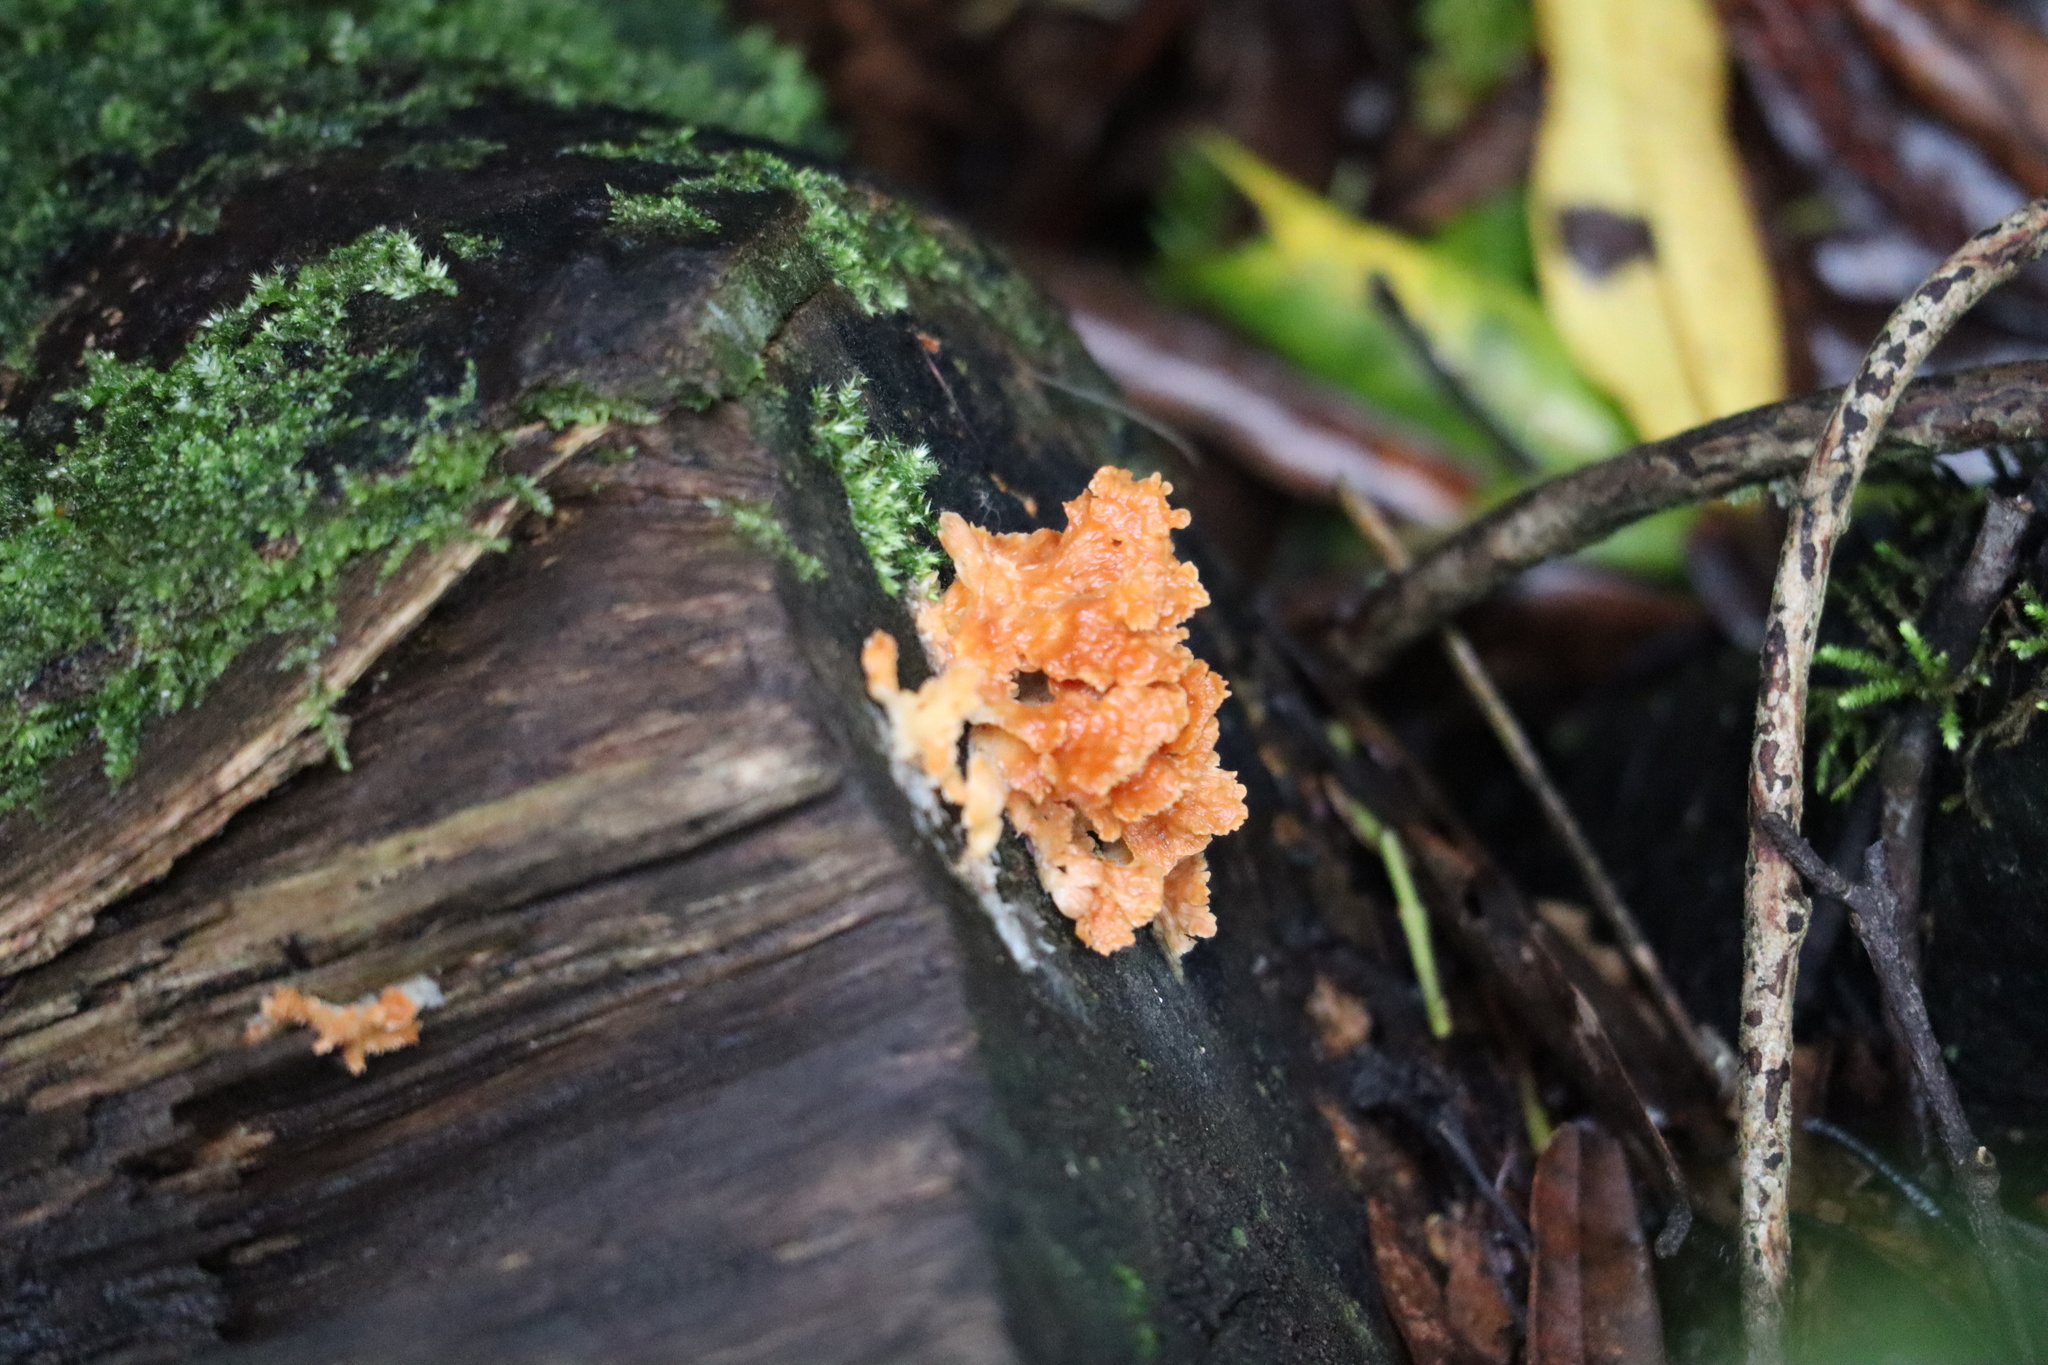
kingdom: Fungi
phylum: Basidiomycota
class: Agaricomycetes
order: Polyporales
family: Cerrenaceae
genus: Cerrena
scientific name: Cerrena zonata
